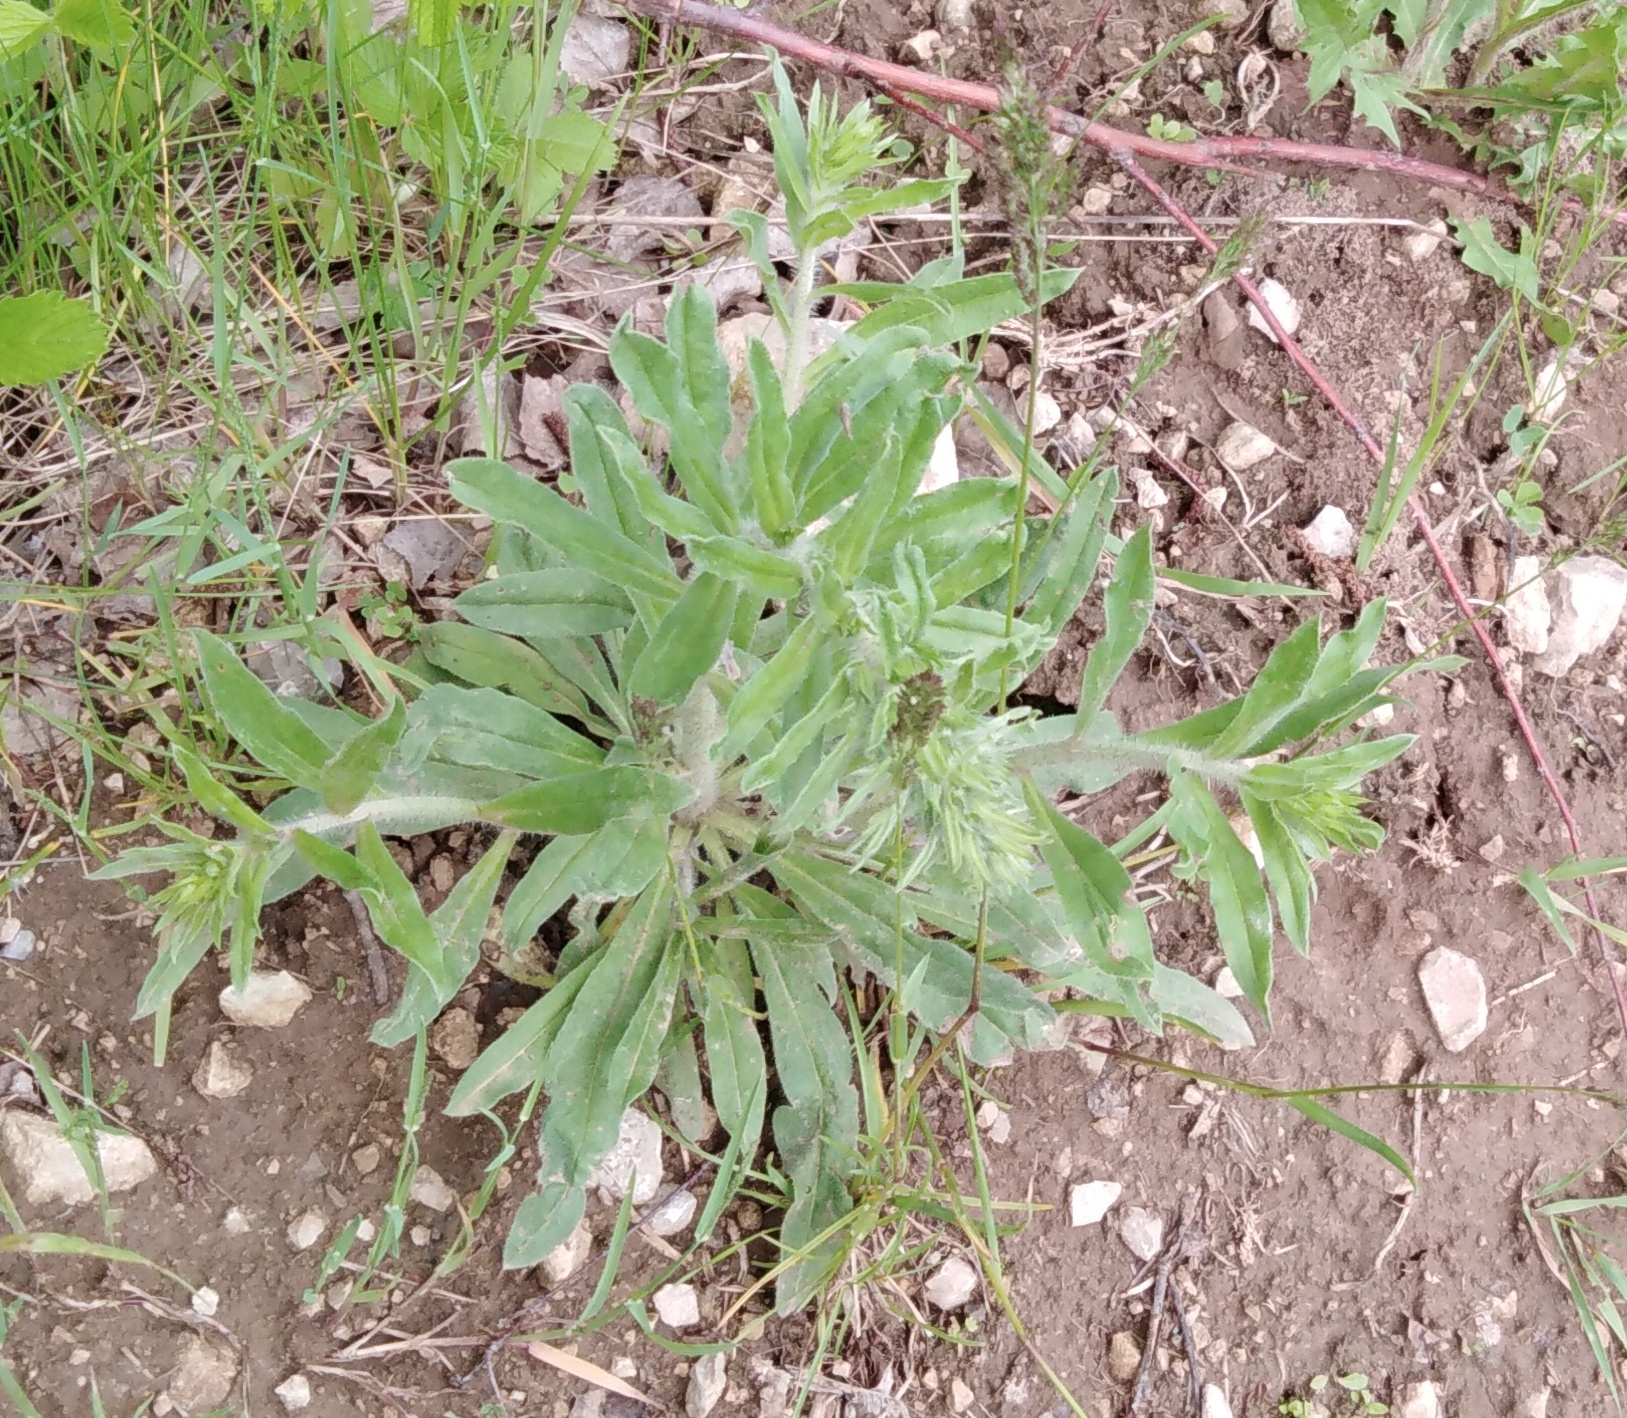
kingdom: Plantae
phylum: Tracheophyta
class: Magnoliopsida
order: Boraginales
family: Boraginaceae
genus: Echium
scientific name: Echium vulgare
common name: Common viper's bugloss
